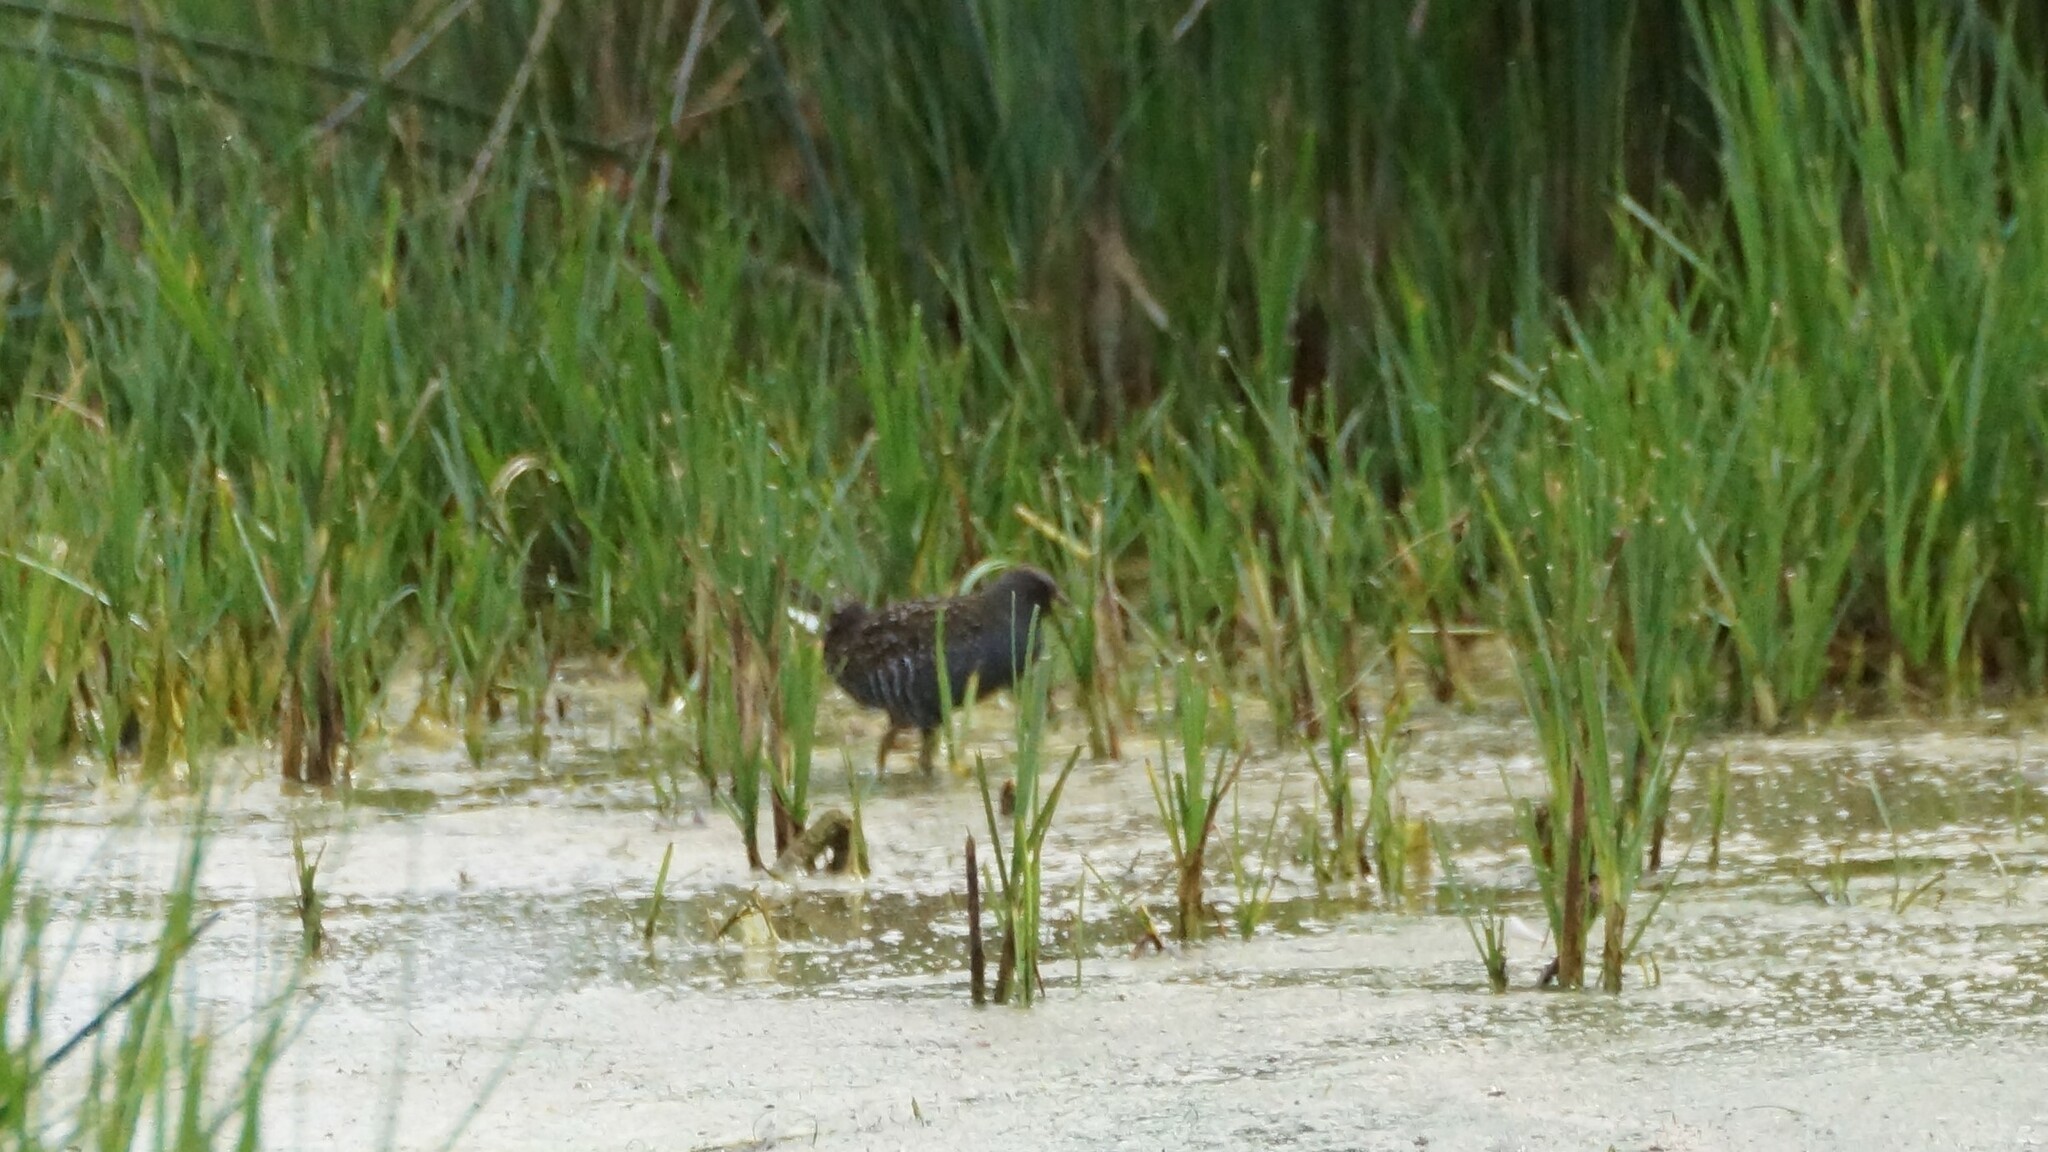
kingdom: Animalia
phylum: Chordata
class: Aves
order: Gruiformes
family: Rallidae
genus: Porzana
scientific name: Porzana fluminea
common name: Australian crake
